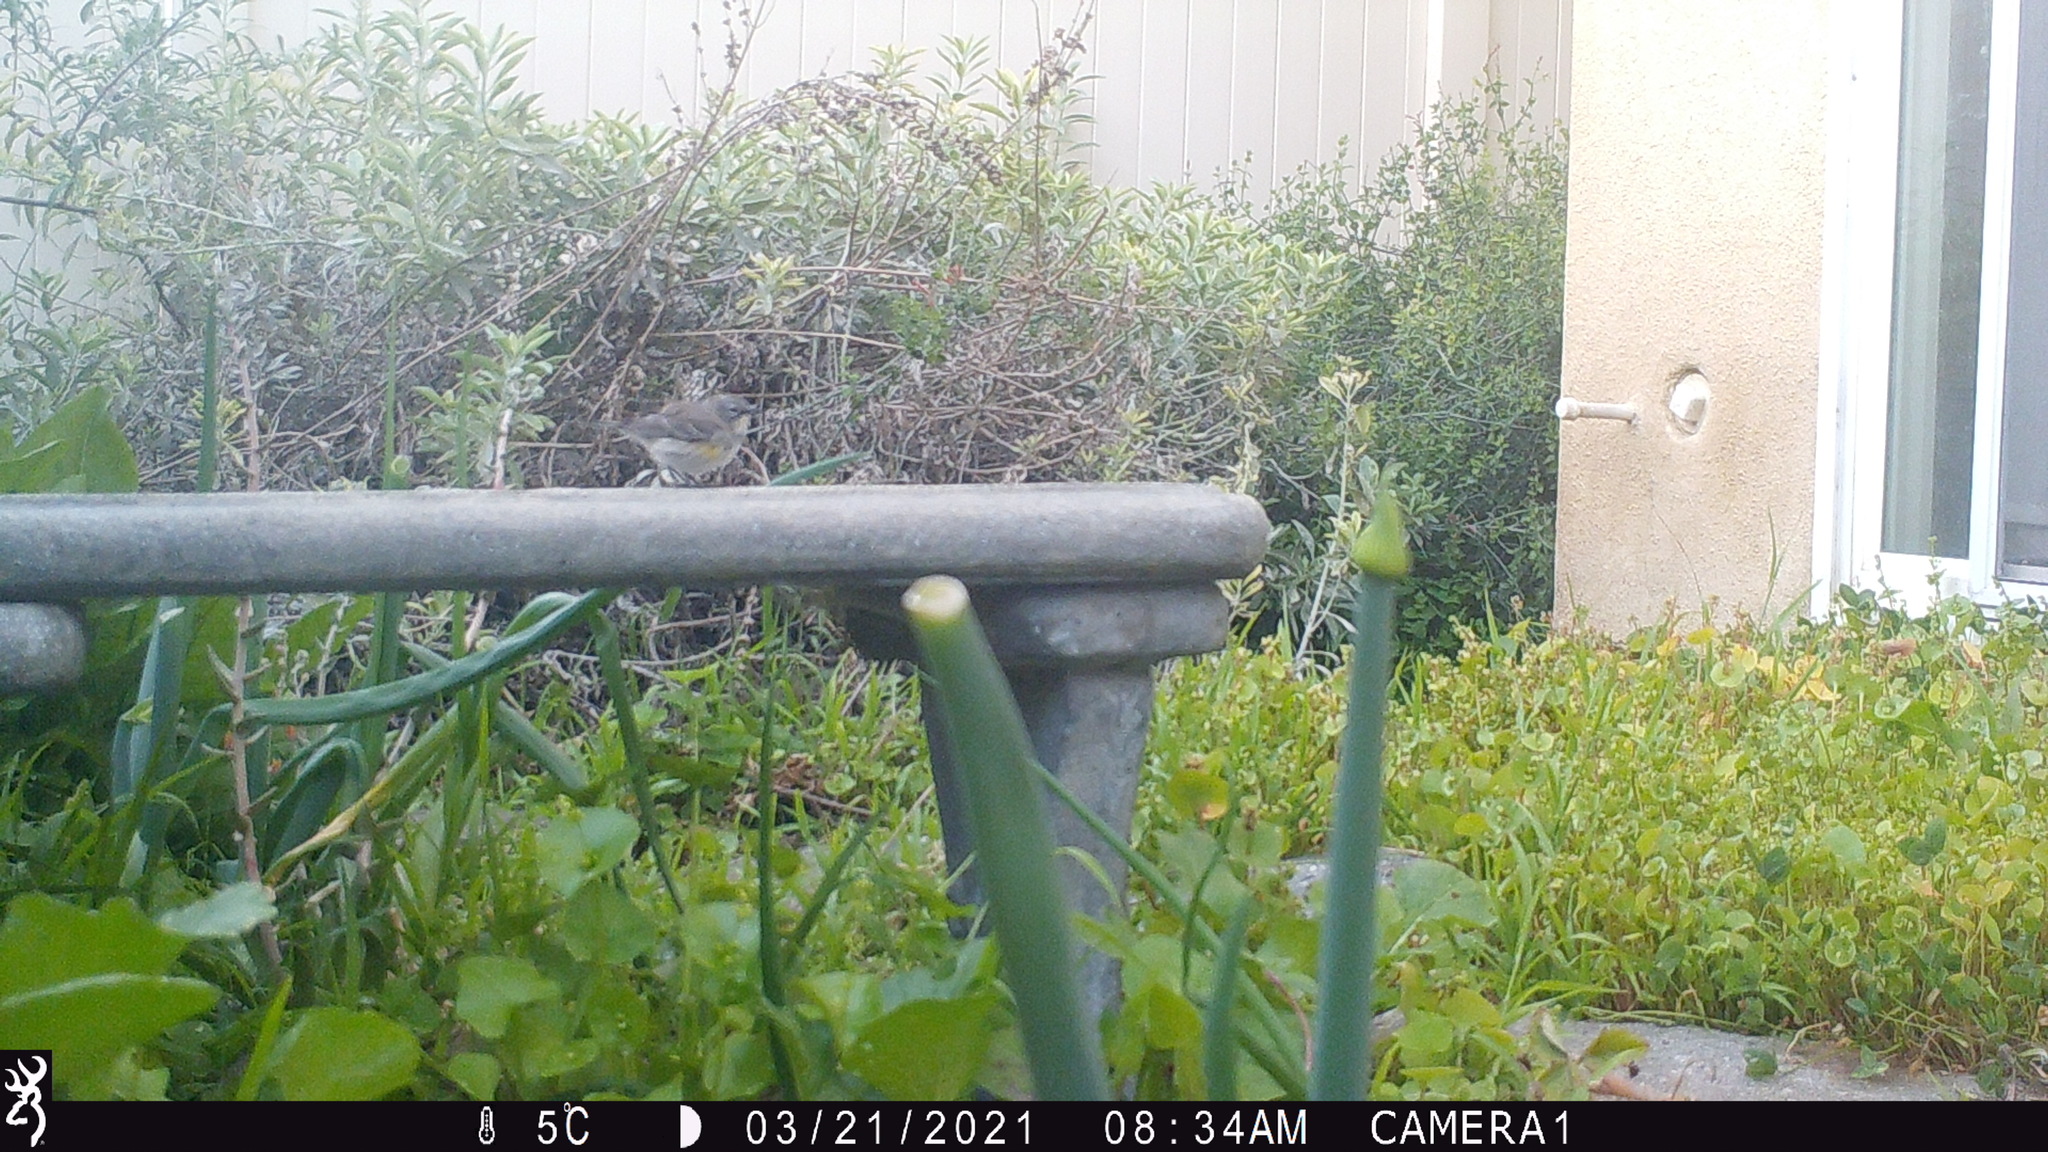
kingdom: Animalia
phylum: Chordata
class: Aves
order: Passeriformes
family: Parulidae
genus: Setophaga
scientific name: Setophaga coronata
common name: Myrtle warbler
